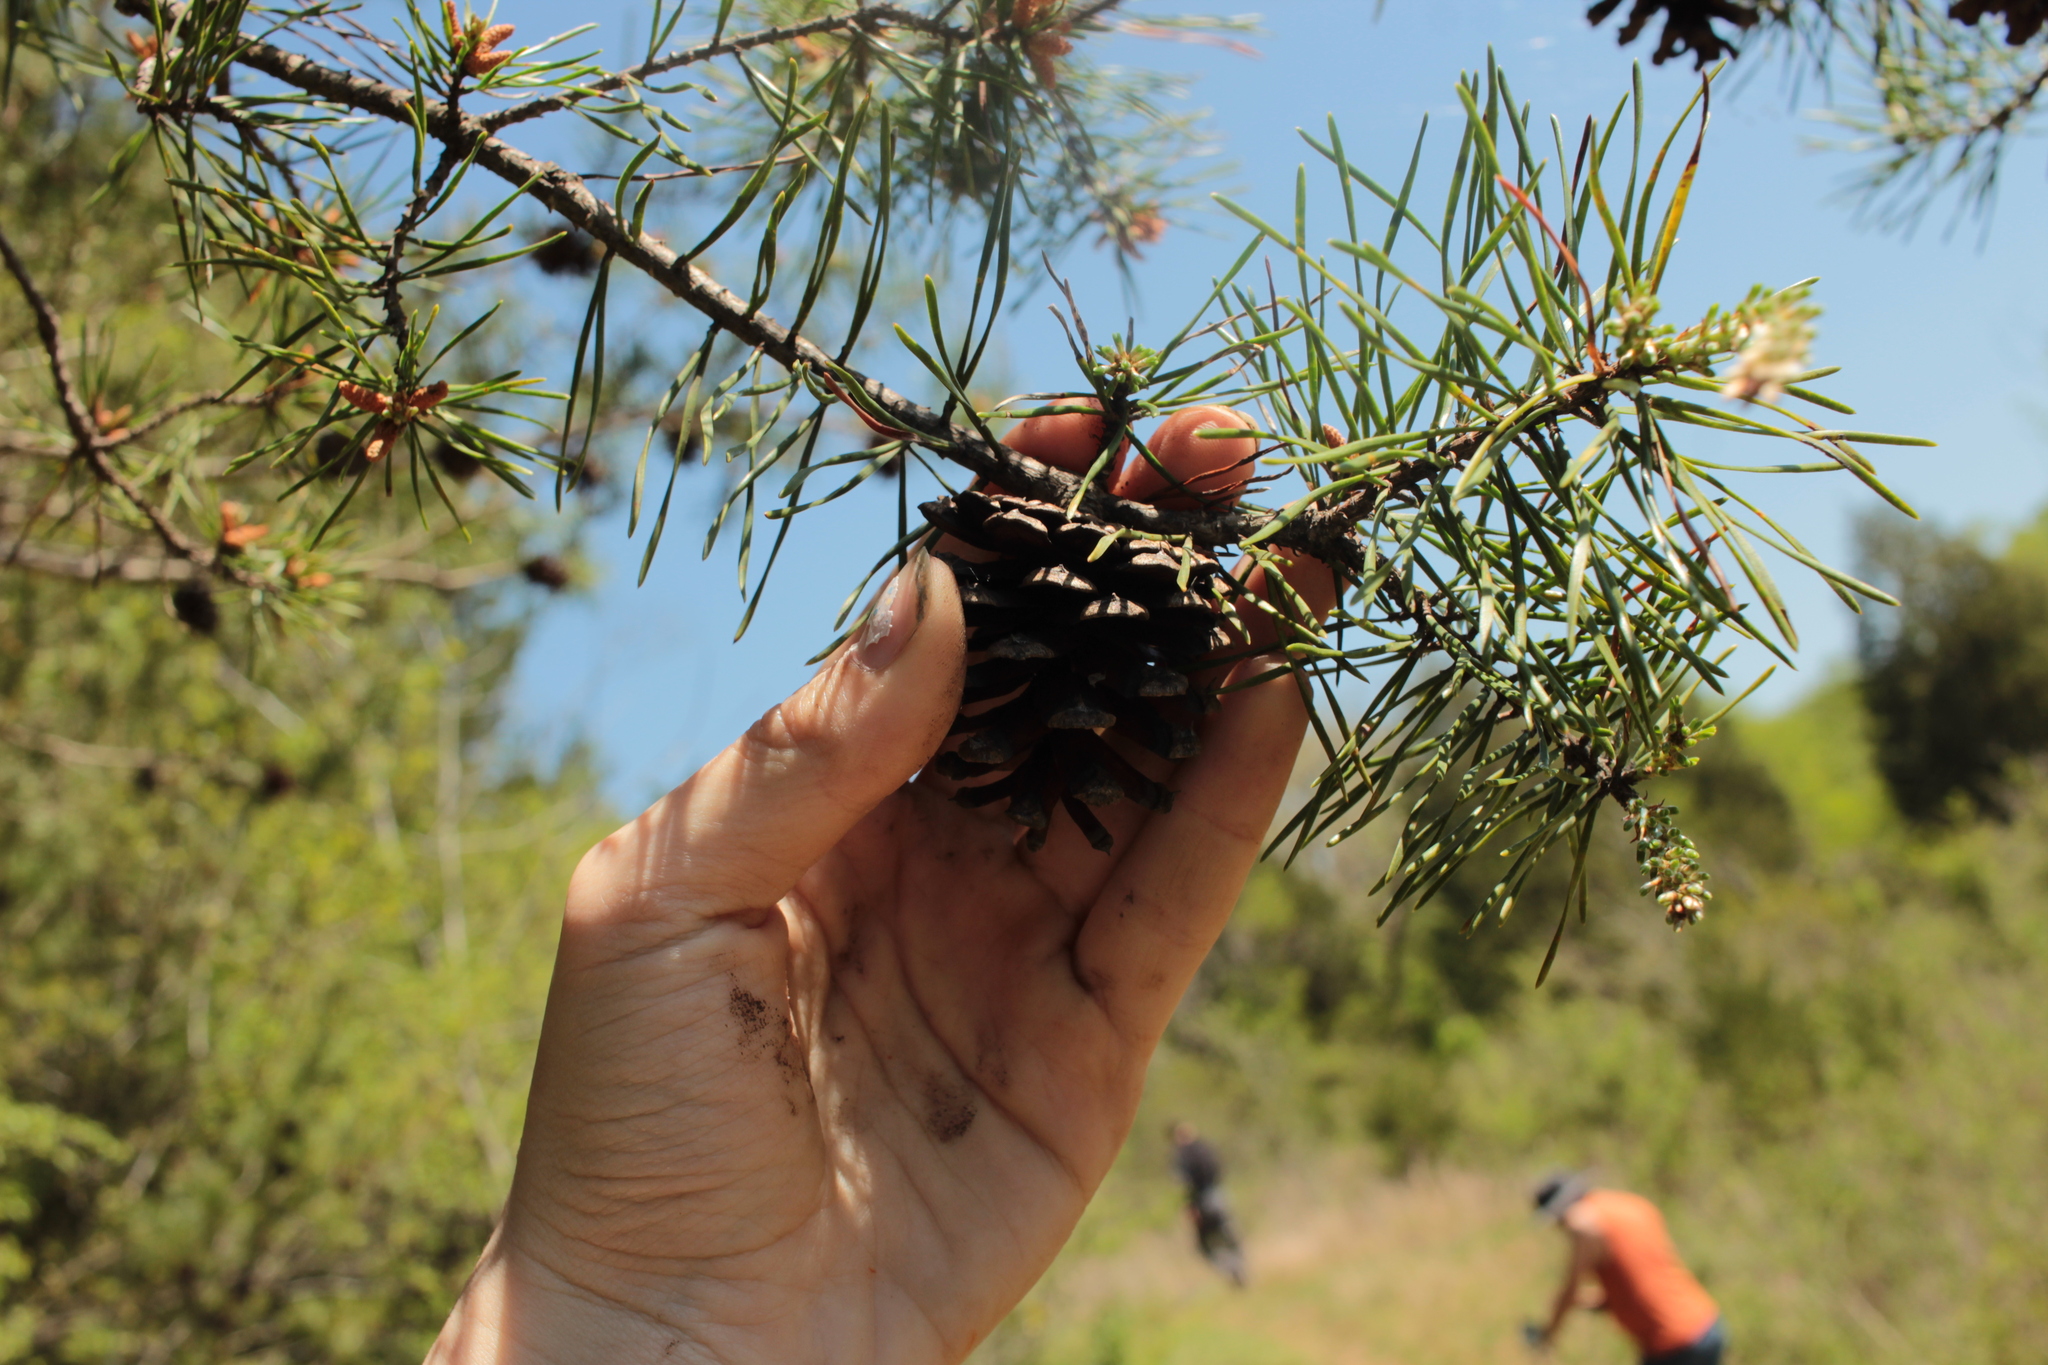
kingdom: Plantae
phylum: Tracheophyta
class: Pinopsida
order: Pinales
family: Pinaceae
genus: Pinus
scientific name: Pinus virginiana
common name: Scrub pine
